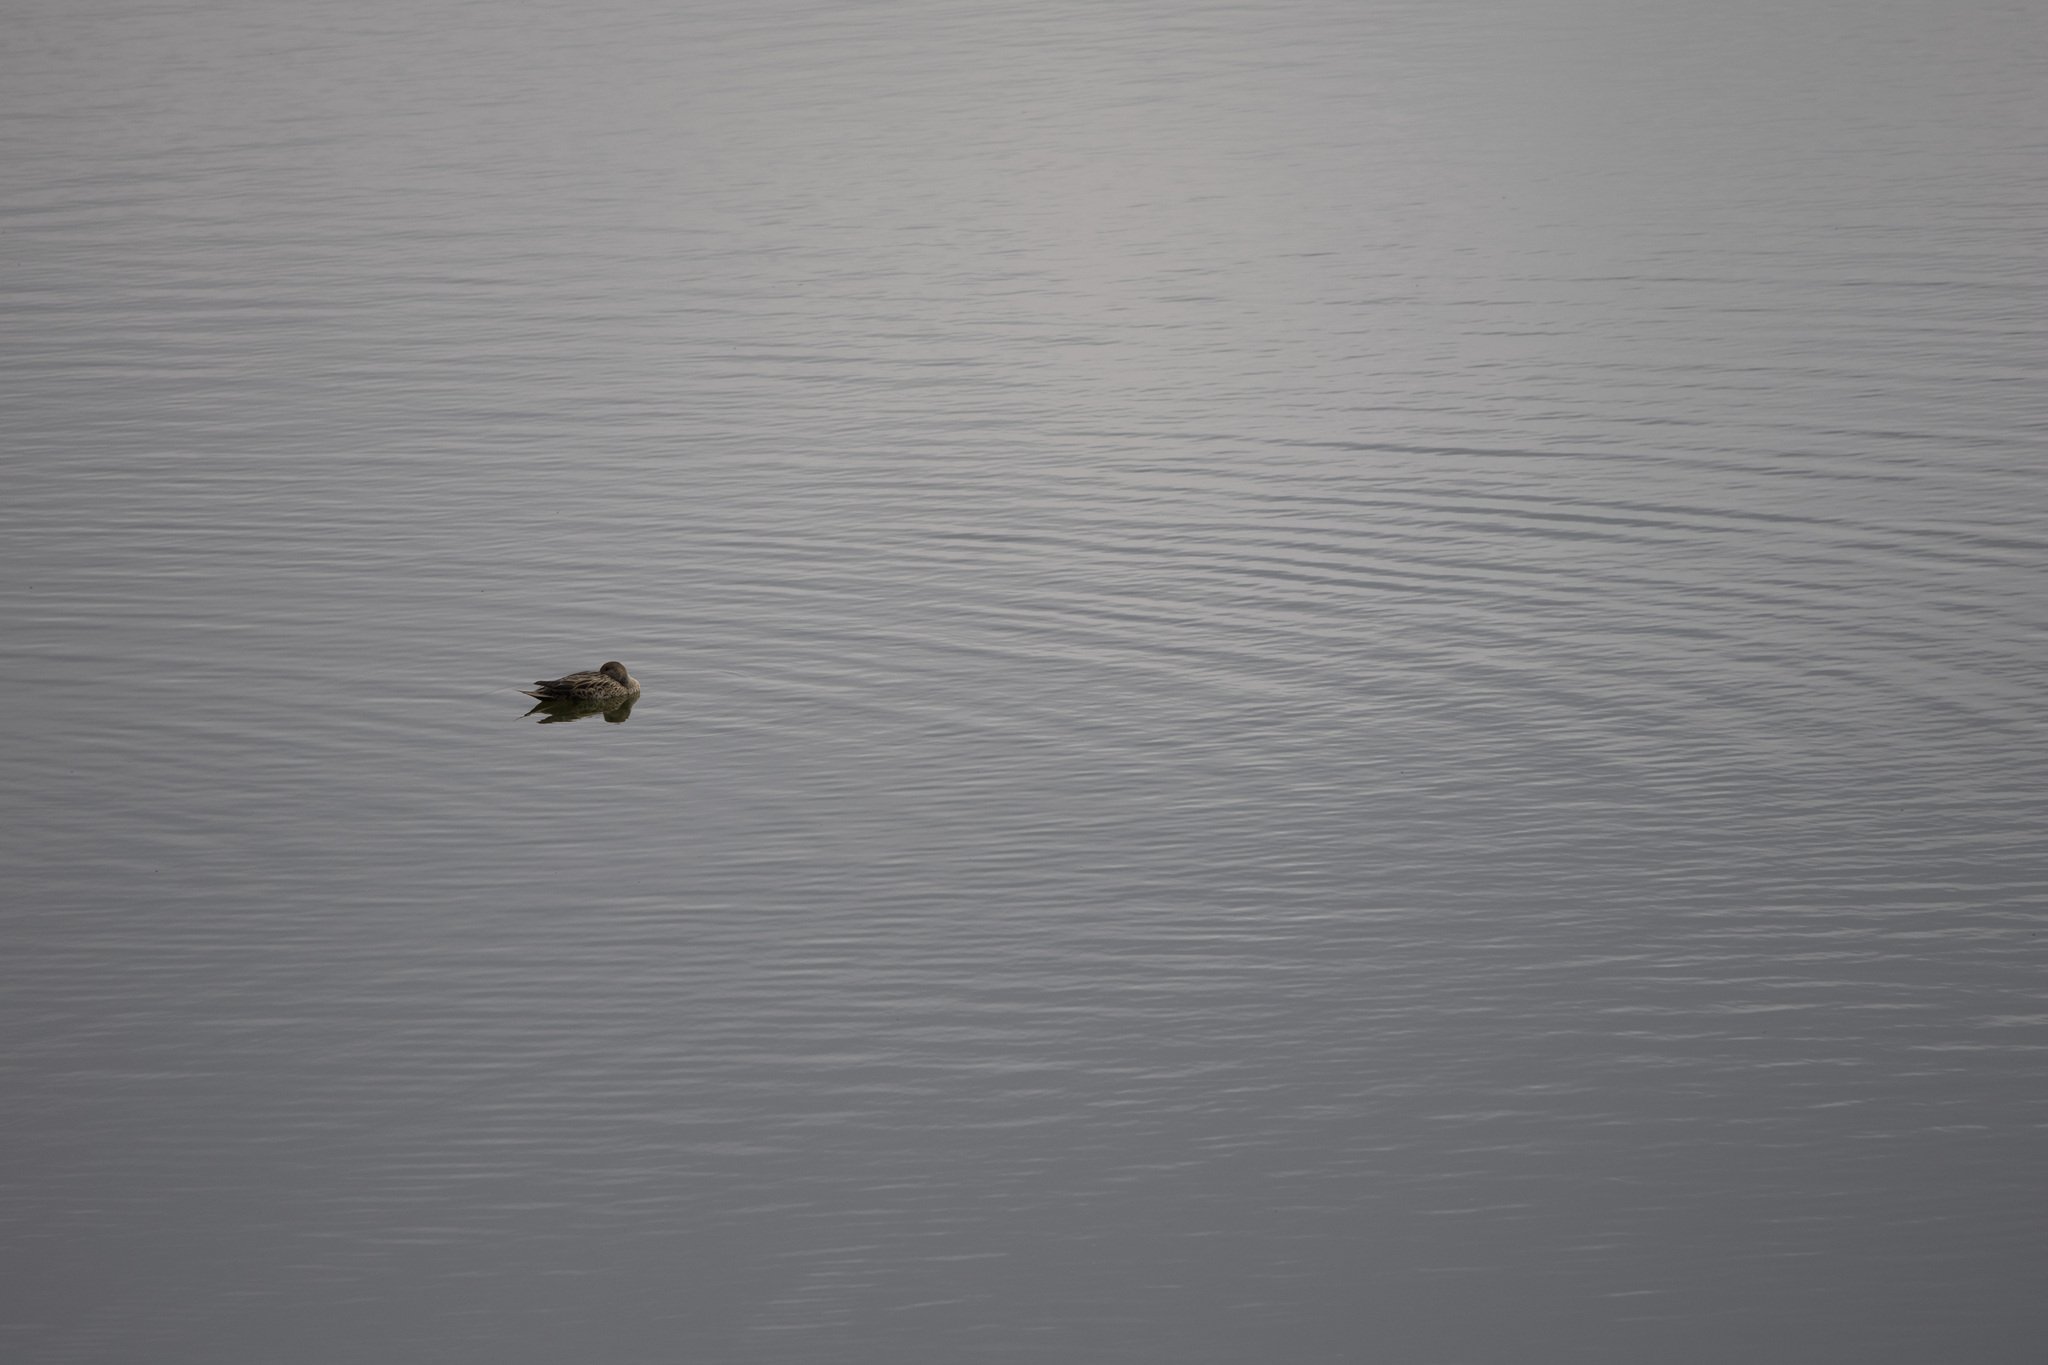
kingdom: Animalia
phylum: Chordata
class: Aves
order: Anseriformes
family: Anatidae
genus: Anas
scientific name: Anas georgica
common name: Yellow-billed pintail
